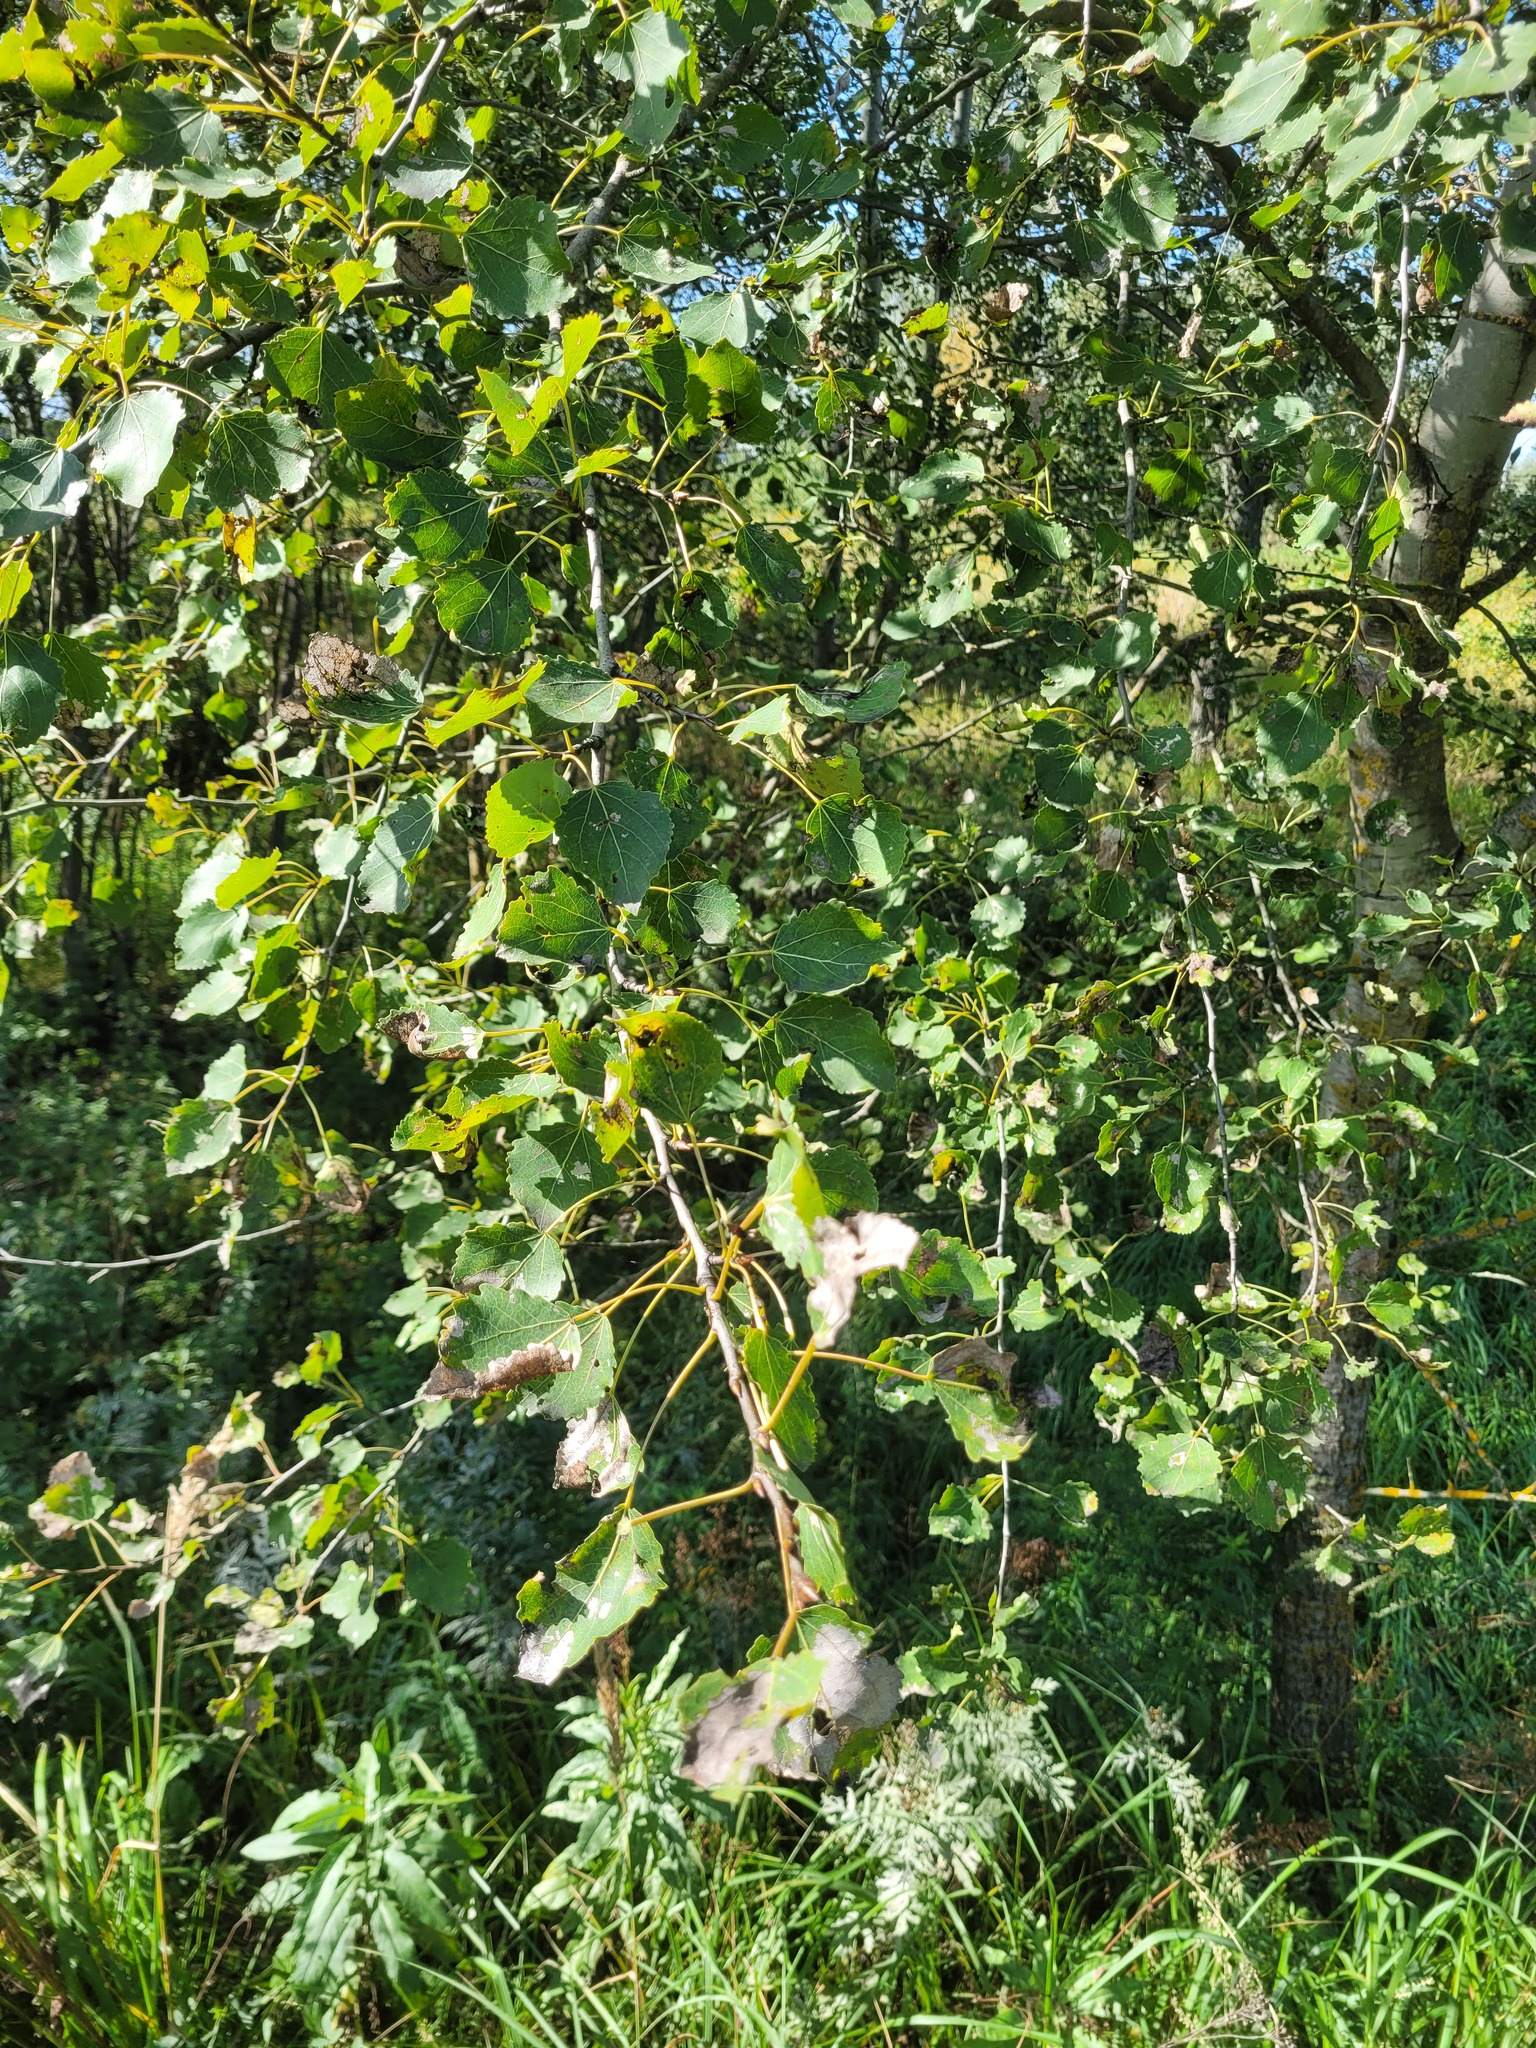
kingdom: Plantae
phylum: Tracheophyta
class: Magnoliopsida
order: Malpighiales
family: Salicaceae
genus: Populus
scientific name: Populus tremula
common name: European aspen
